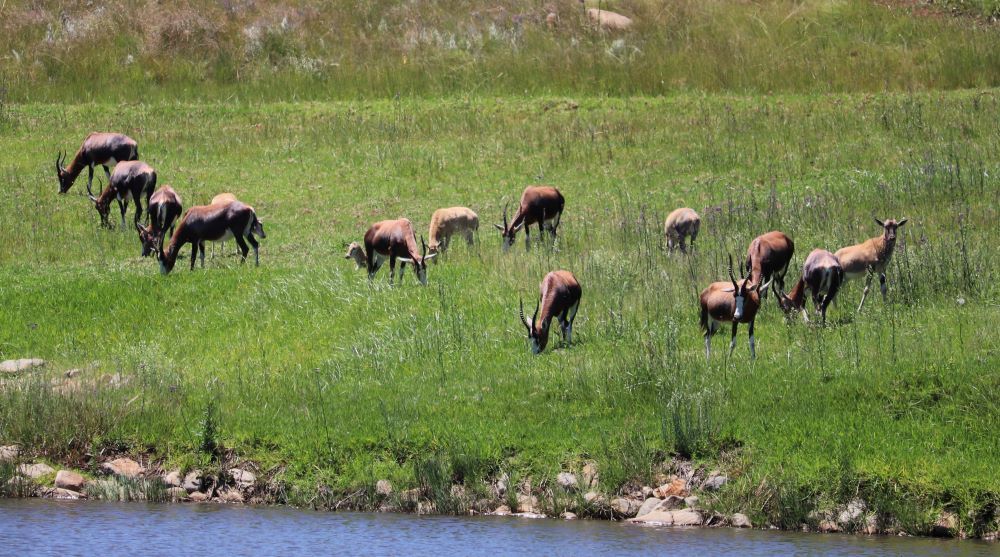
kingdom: Animalia
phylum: Chordata
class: Mammalia
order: Artiodactyla
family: Bovidae
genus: Damaliscus
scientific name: Damaliscus pygargus
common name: Bontebok
